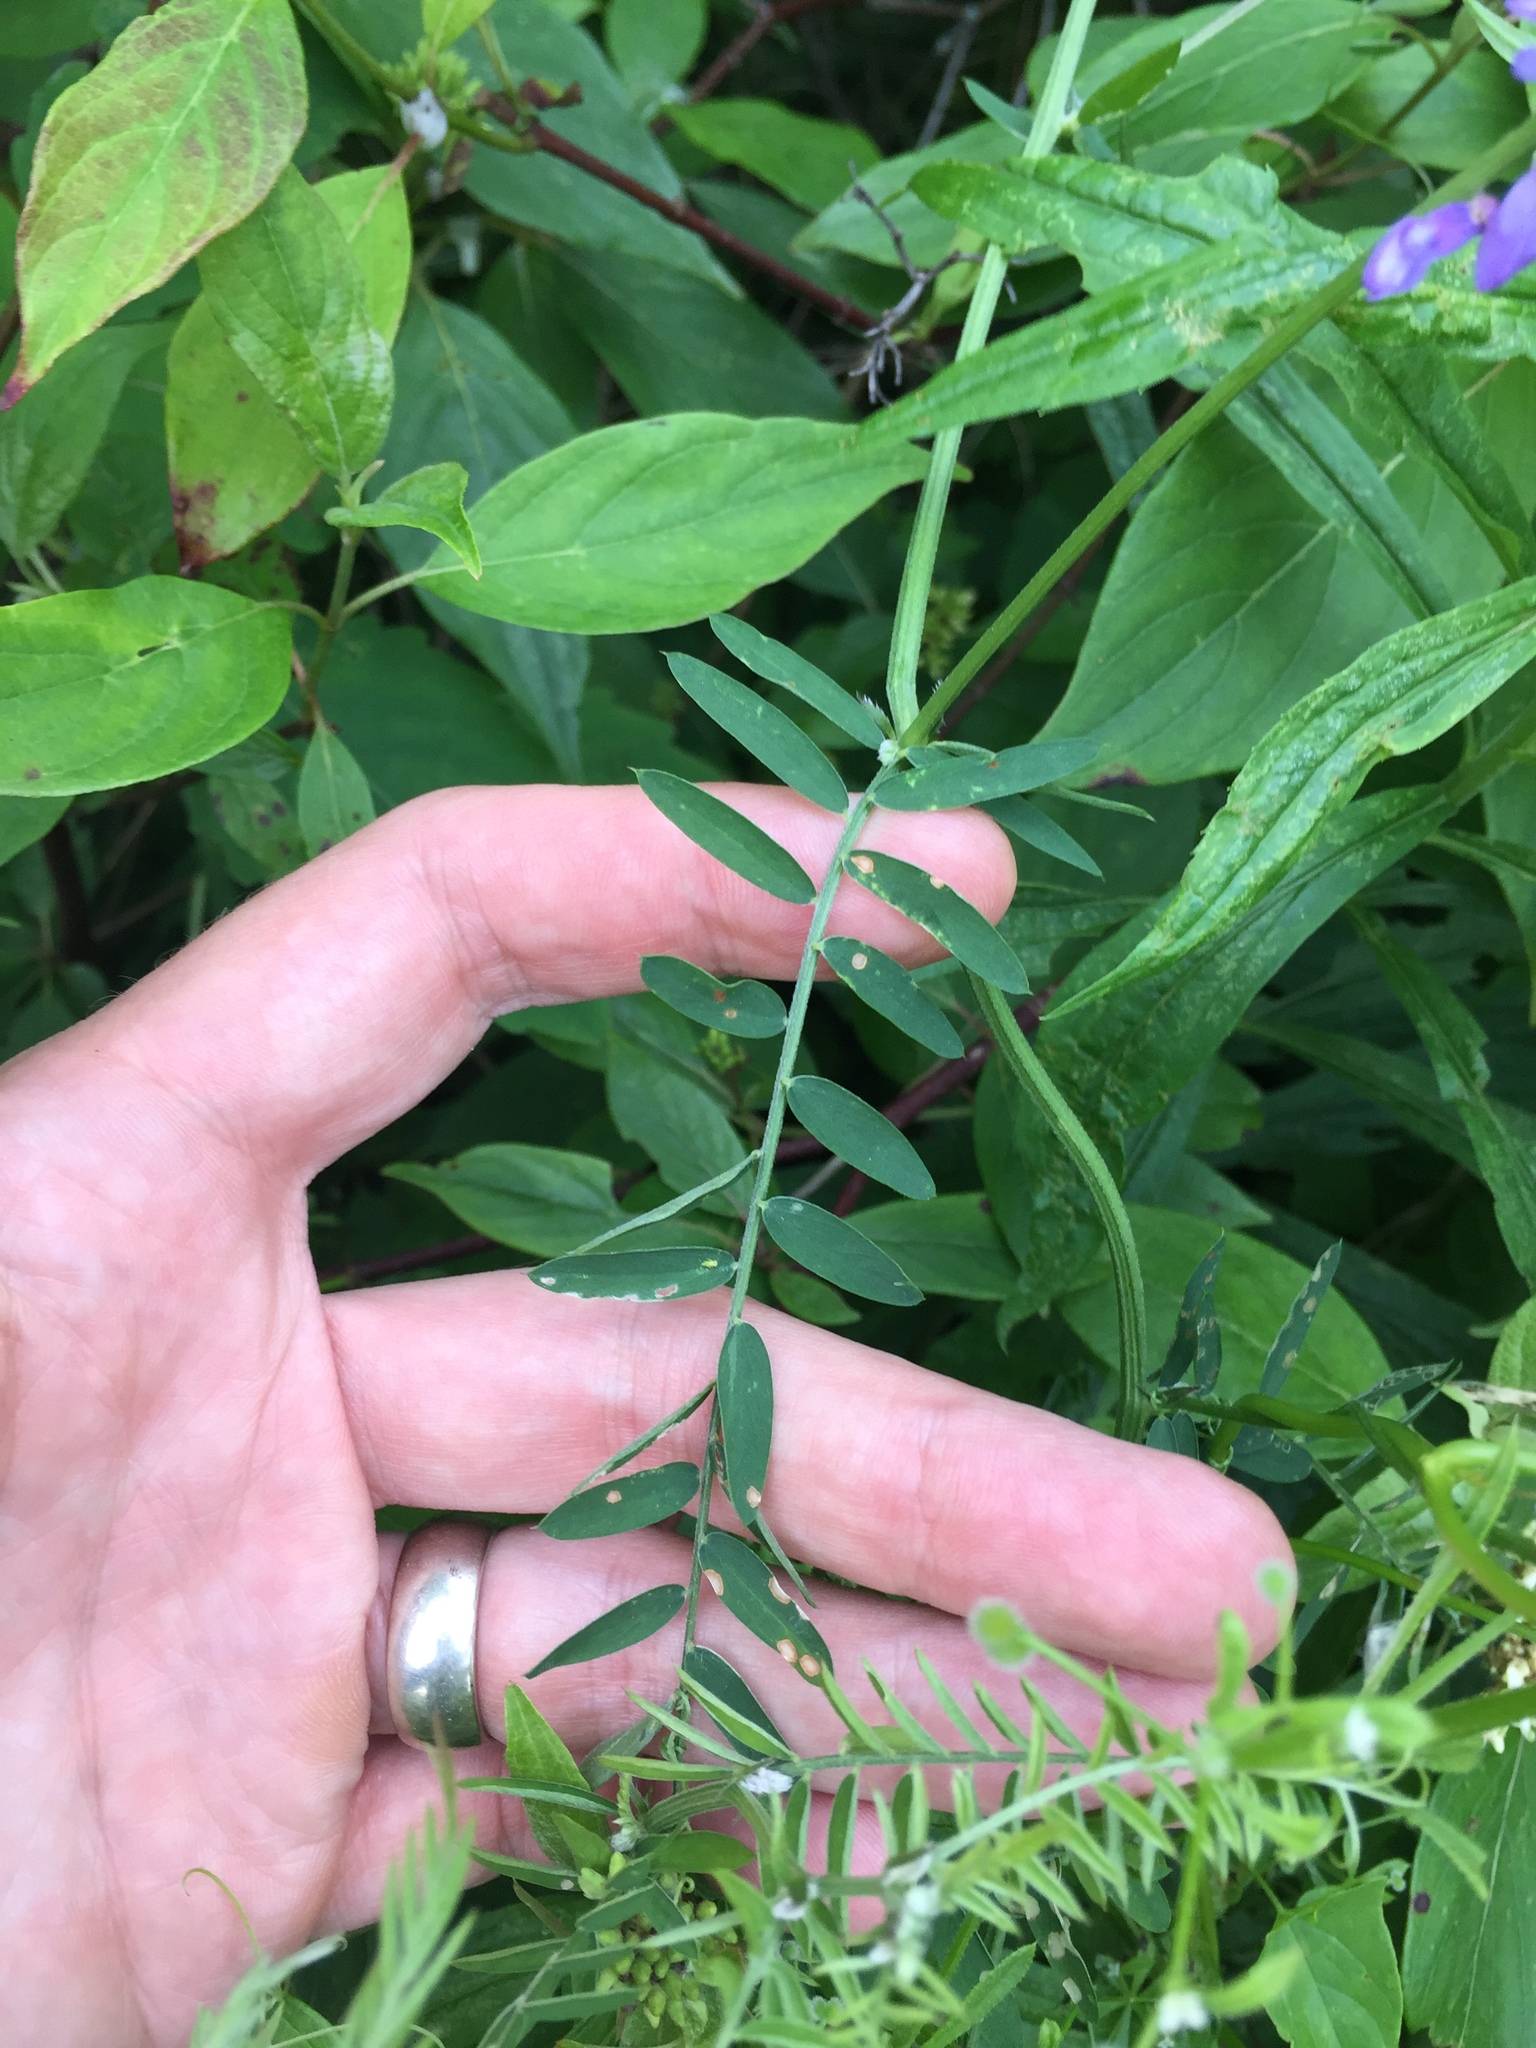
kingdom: Plantae
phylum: Tracheophyta
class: Magnoliopsida
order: Fabales
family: Fabaceae
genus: Vicia
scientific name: Vicia cracca
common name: Bird vetch
